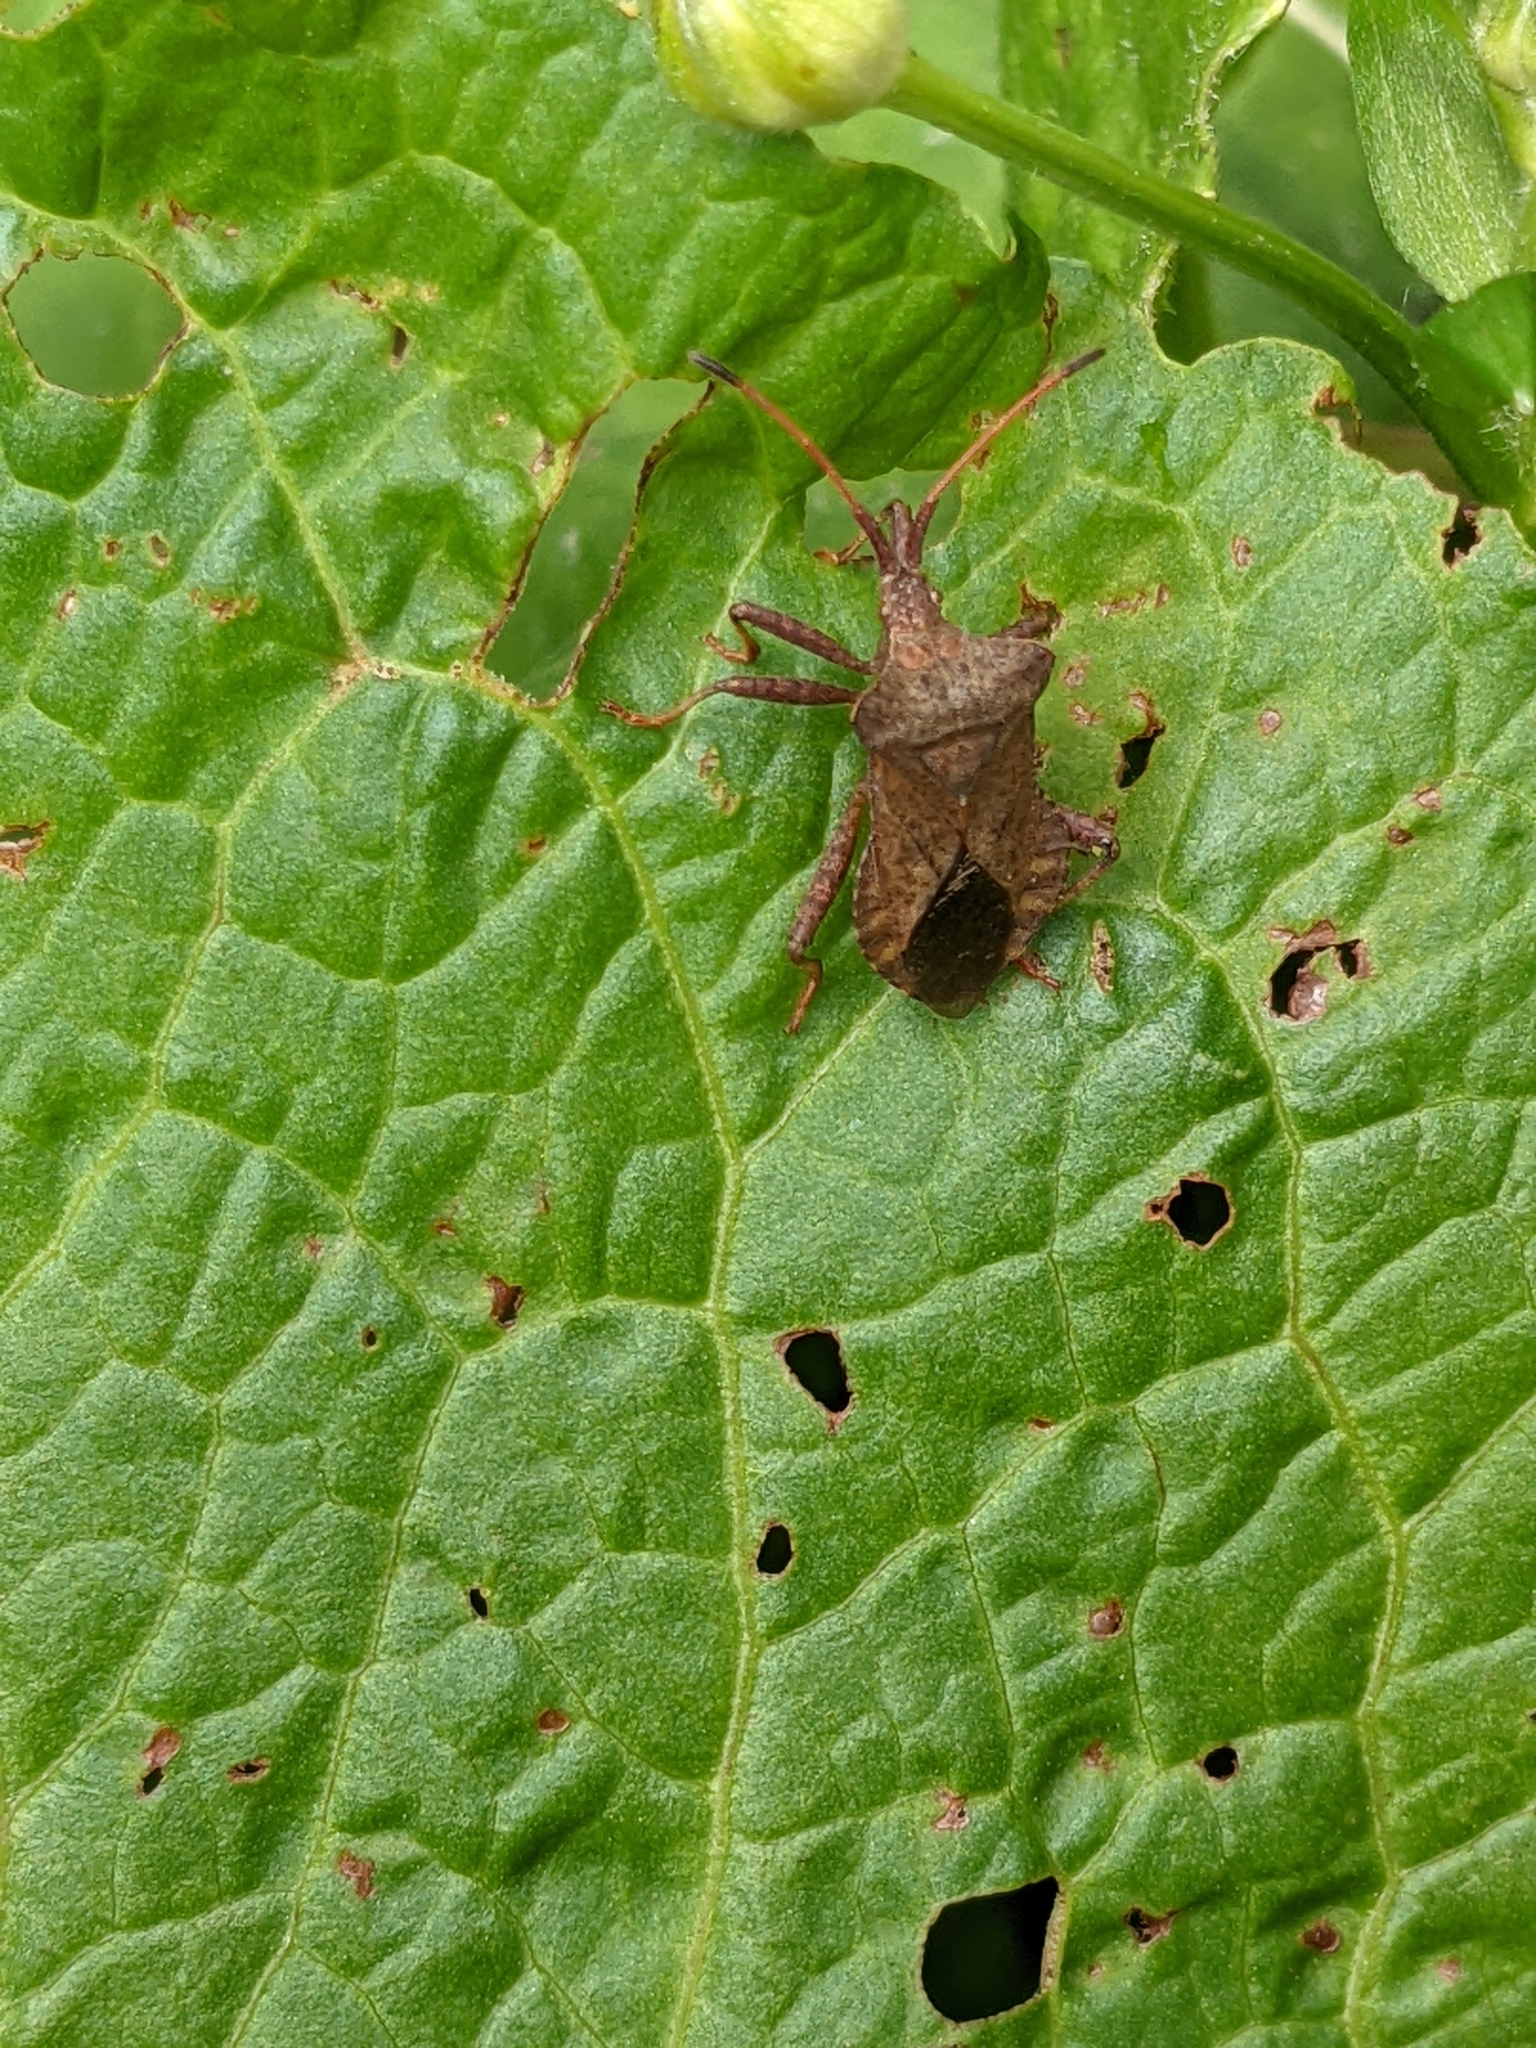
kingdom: Animalia
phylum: Arthropoda
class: Insecta
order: Hemiptera
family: Coreidae
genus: Coreus
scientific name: Coreus marginatus
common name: Dock bug
